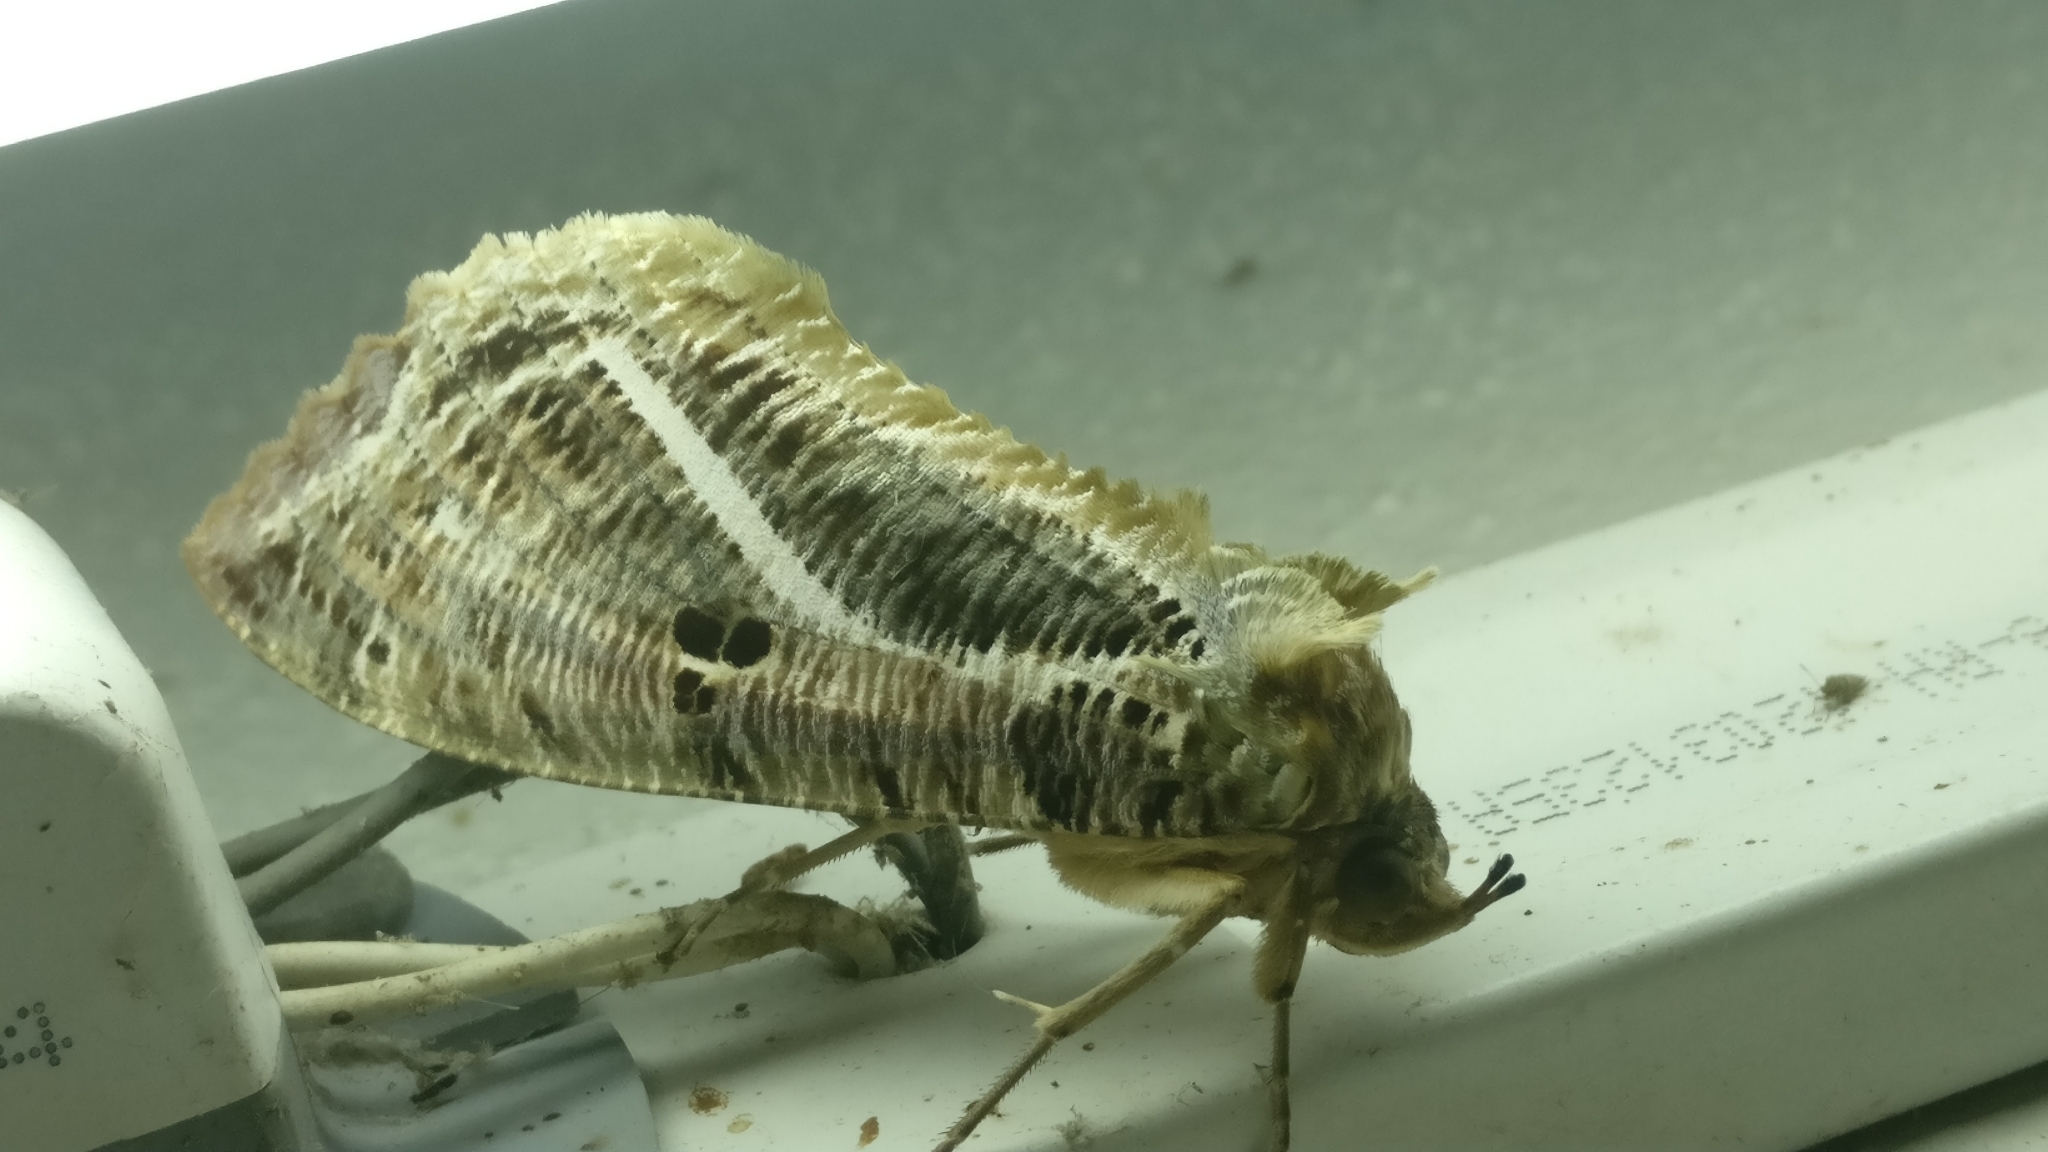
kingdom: Animalia
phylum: Arthropoda
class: Insecta
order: Lepidoptera
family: Erebidae
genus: Eudocima
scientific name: Eudocima materna
